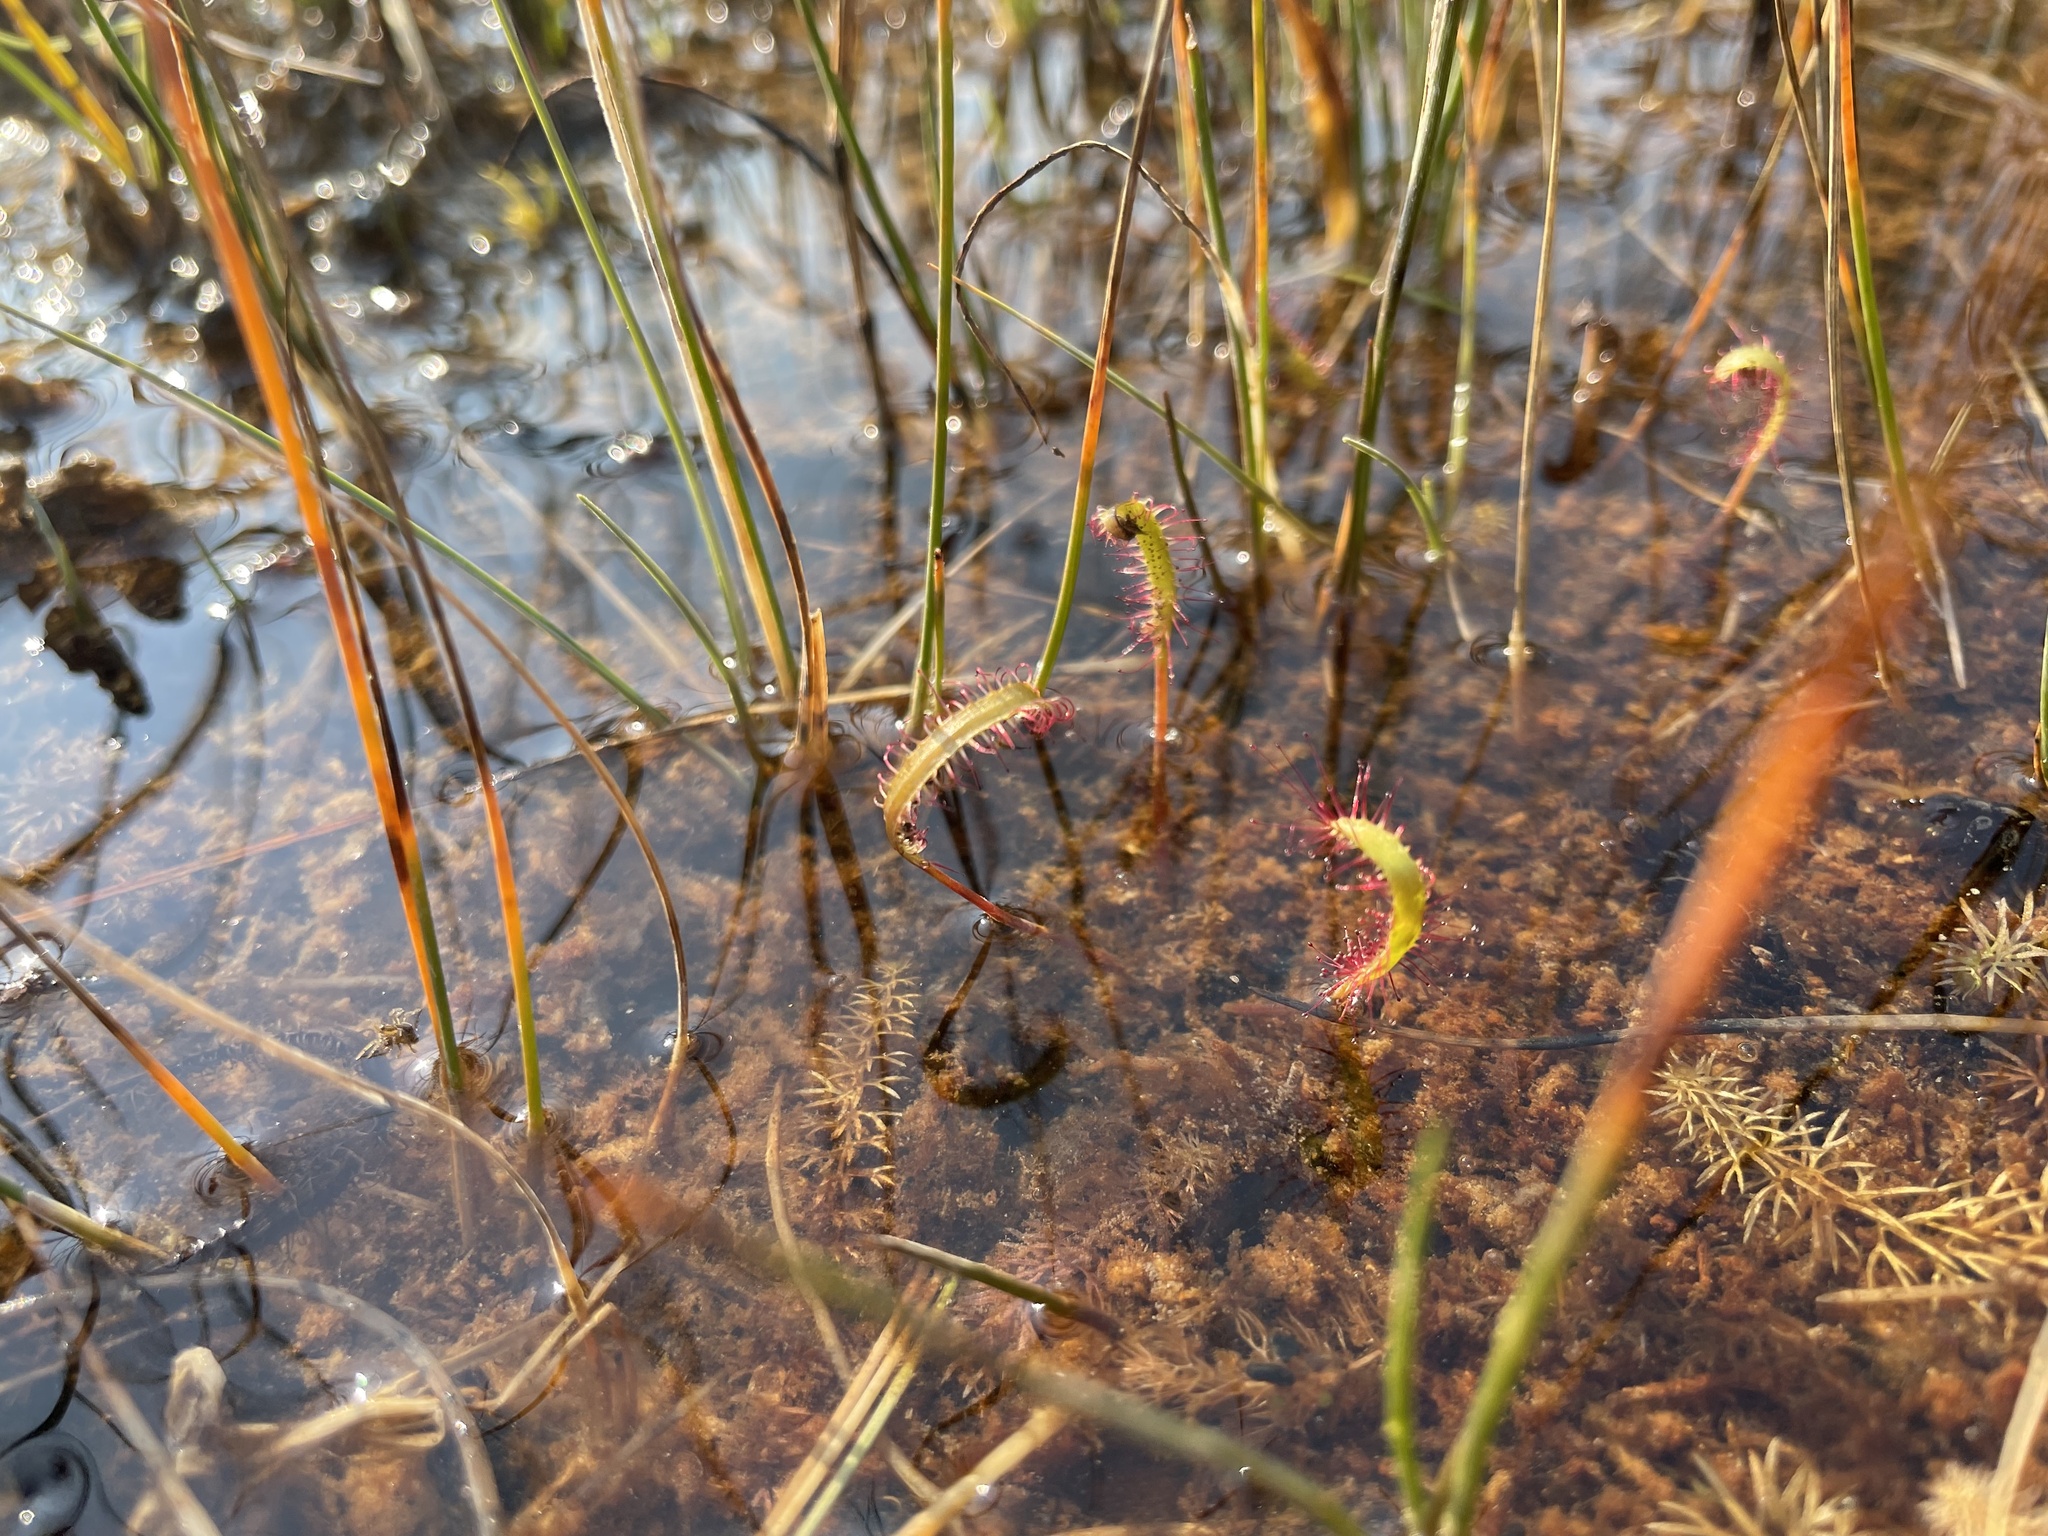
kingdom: Plantae
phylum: Tracheophyta
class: Magnoliopsida
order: Caryophyllales
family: Droseraceae
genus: Drosera
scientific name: Drosera linearis
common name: Linear-leaved sundew
